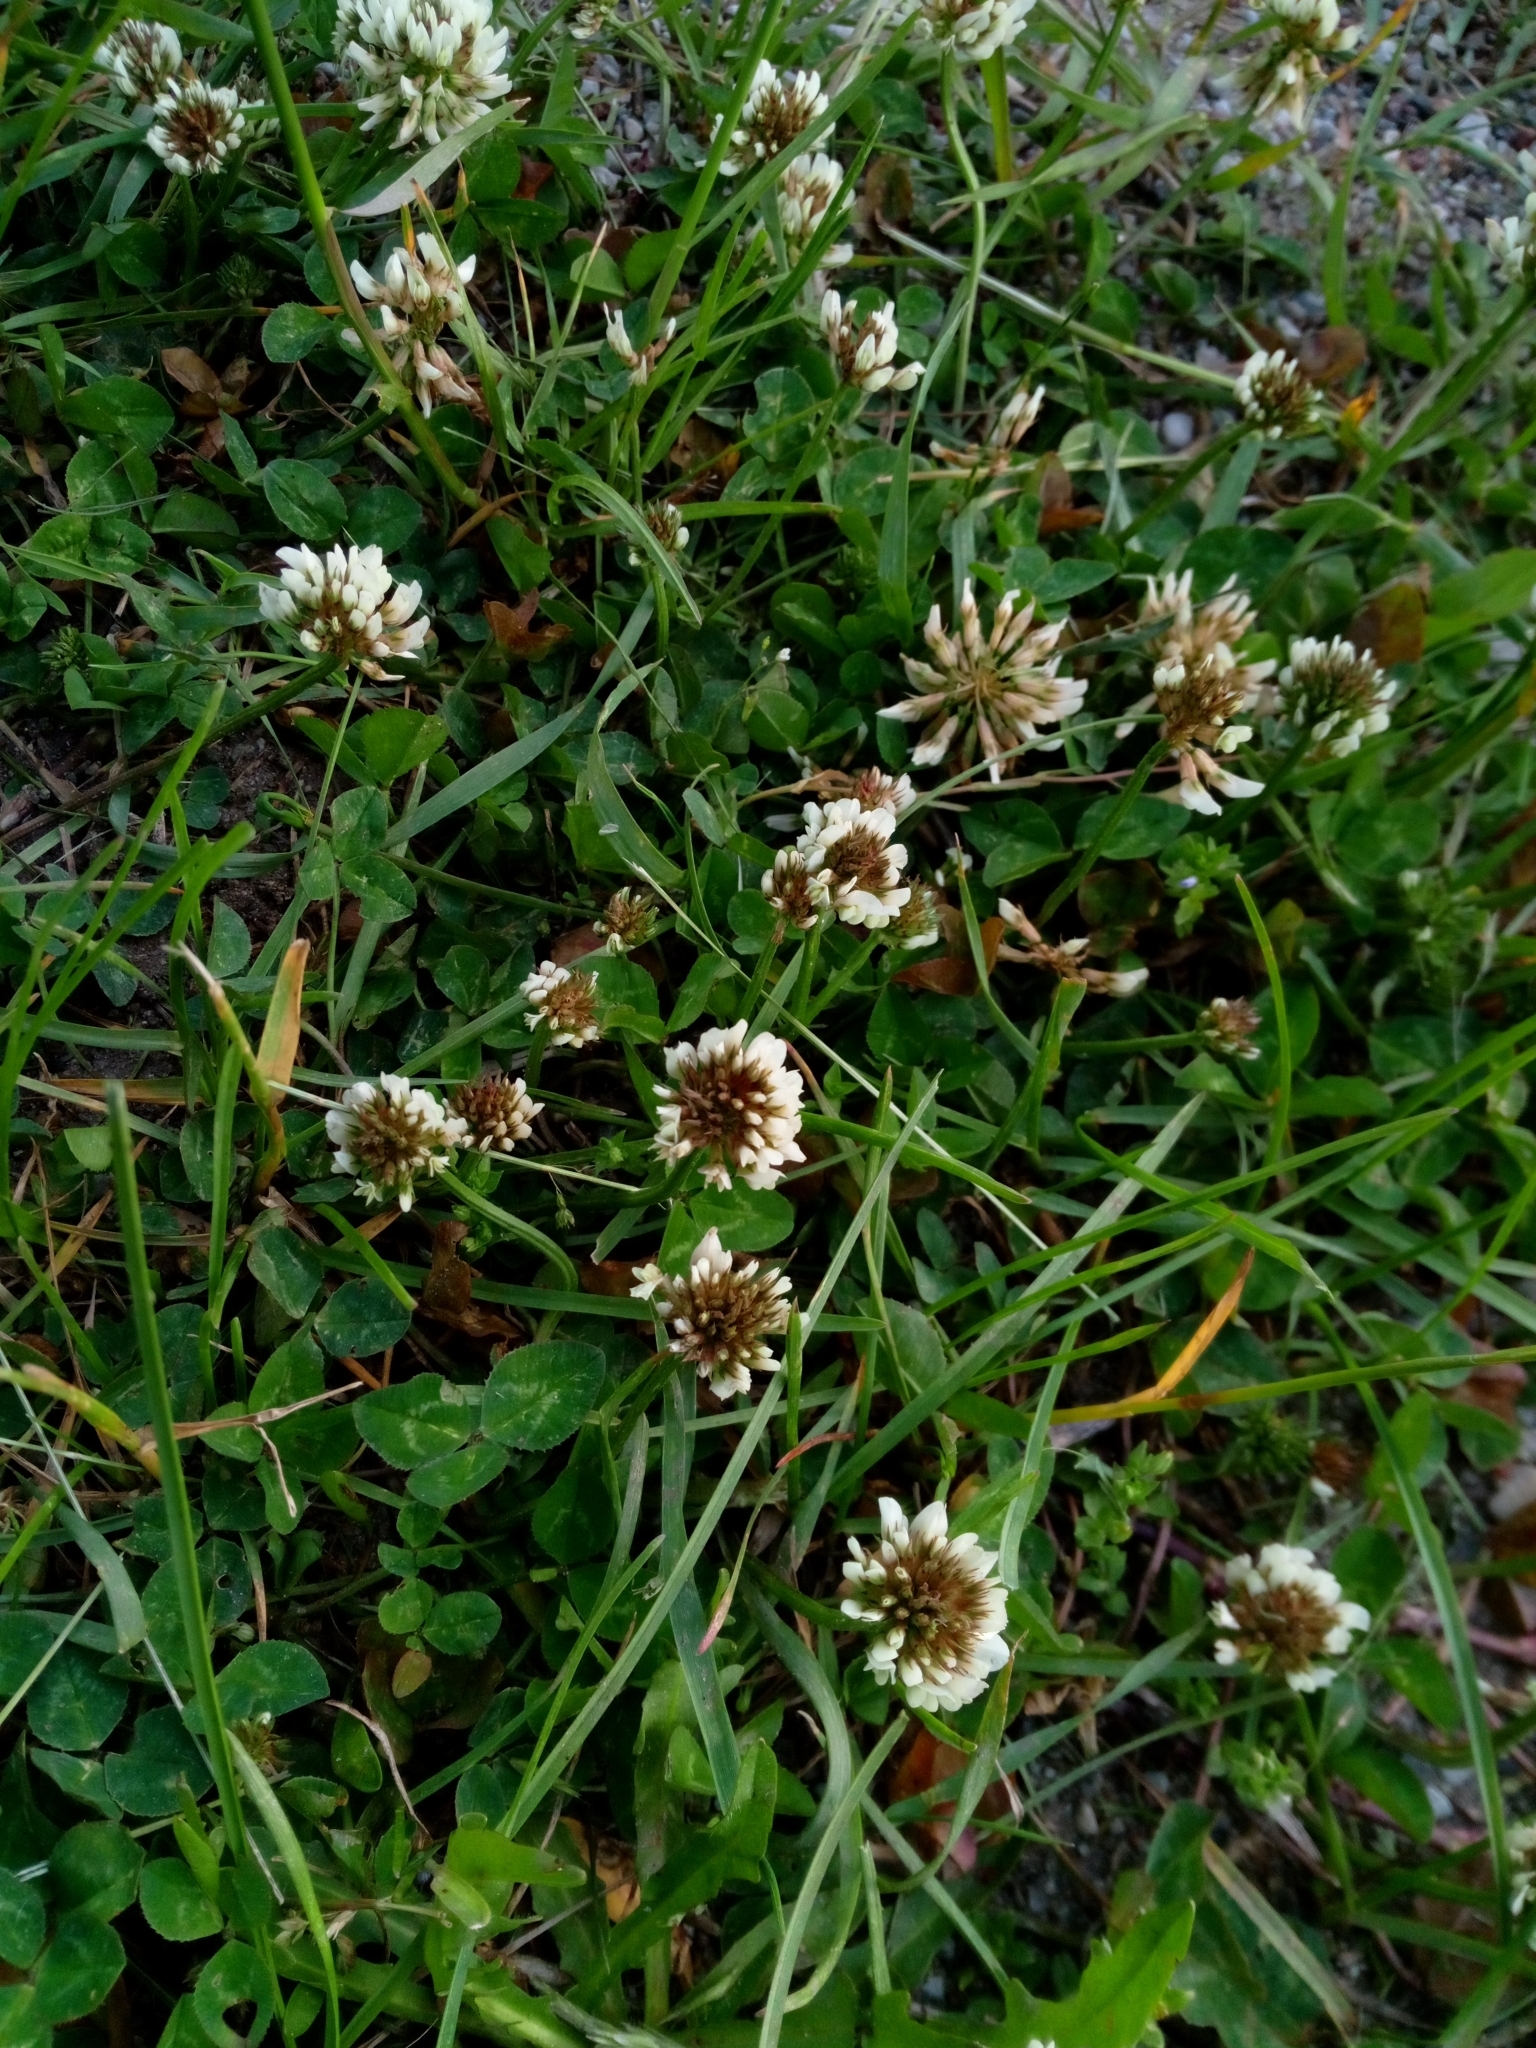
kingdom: Plantae
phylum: Tracheophyta
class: Magnoliopsida
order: Fabales
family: Fabaceae
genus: Trifolium
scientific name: Trifolium repens
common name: White clover
